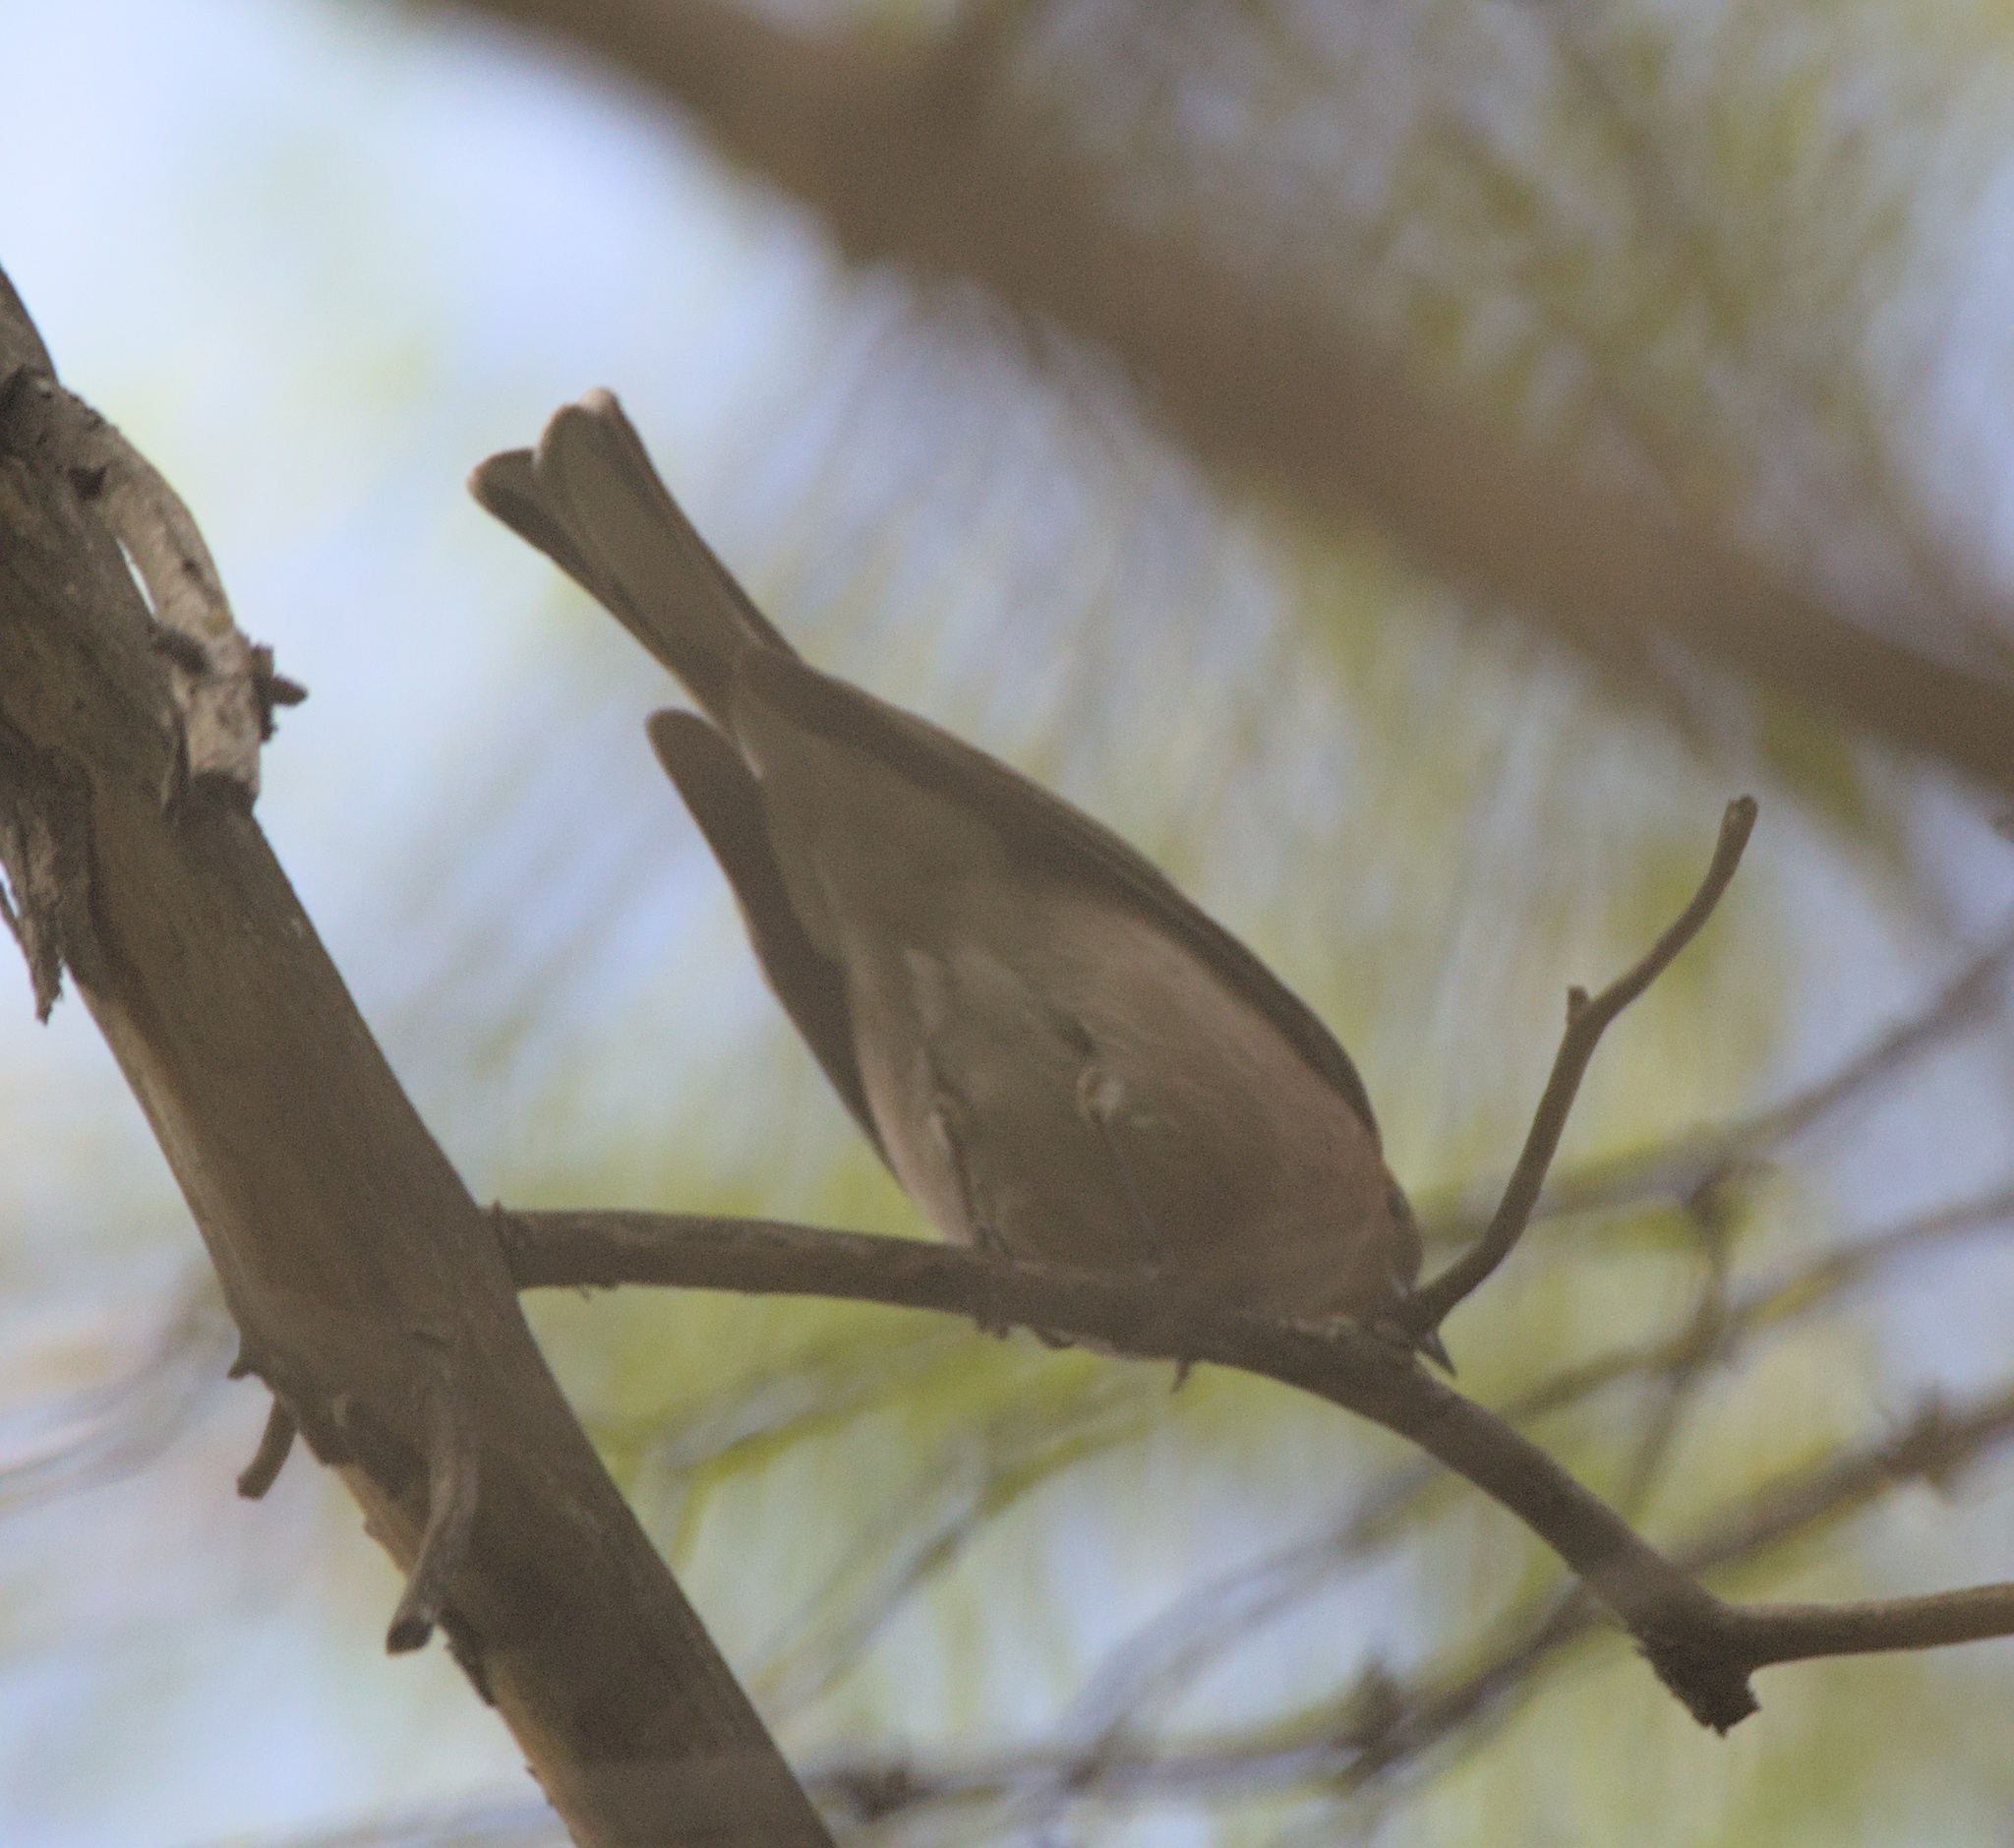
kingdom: Animalia
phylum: Chordata
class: Aves
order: Passeriformes
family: Fringillidae
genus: Fringilla
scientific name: Fringilla coelebs
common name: Common chaffinch
